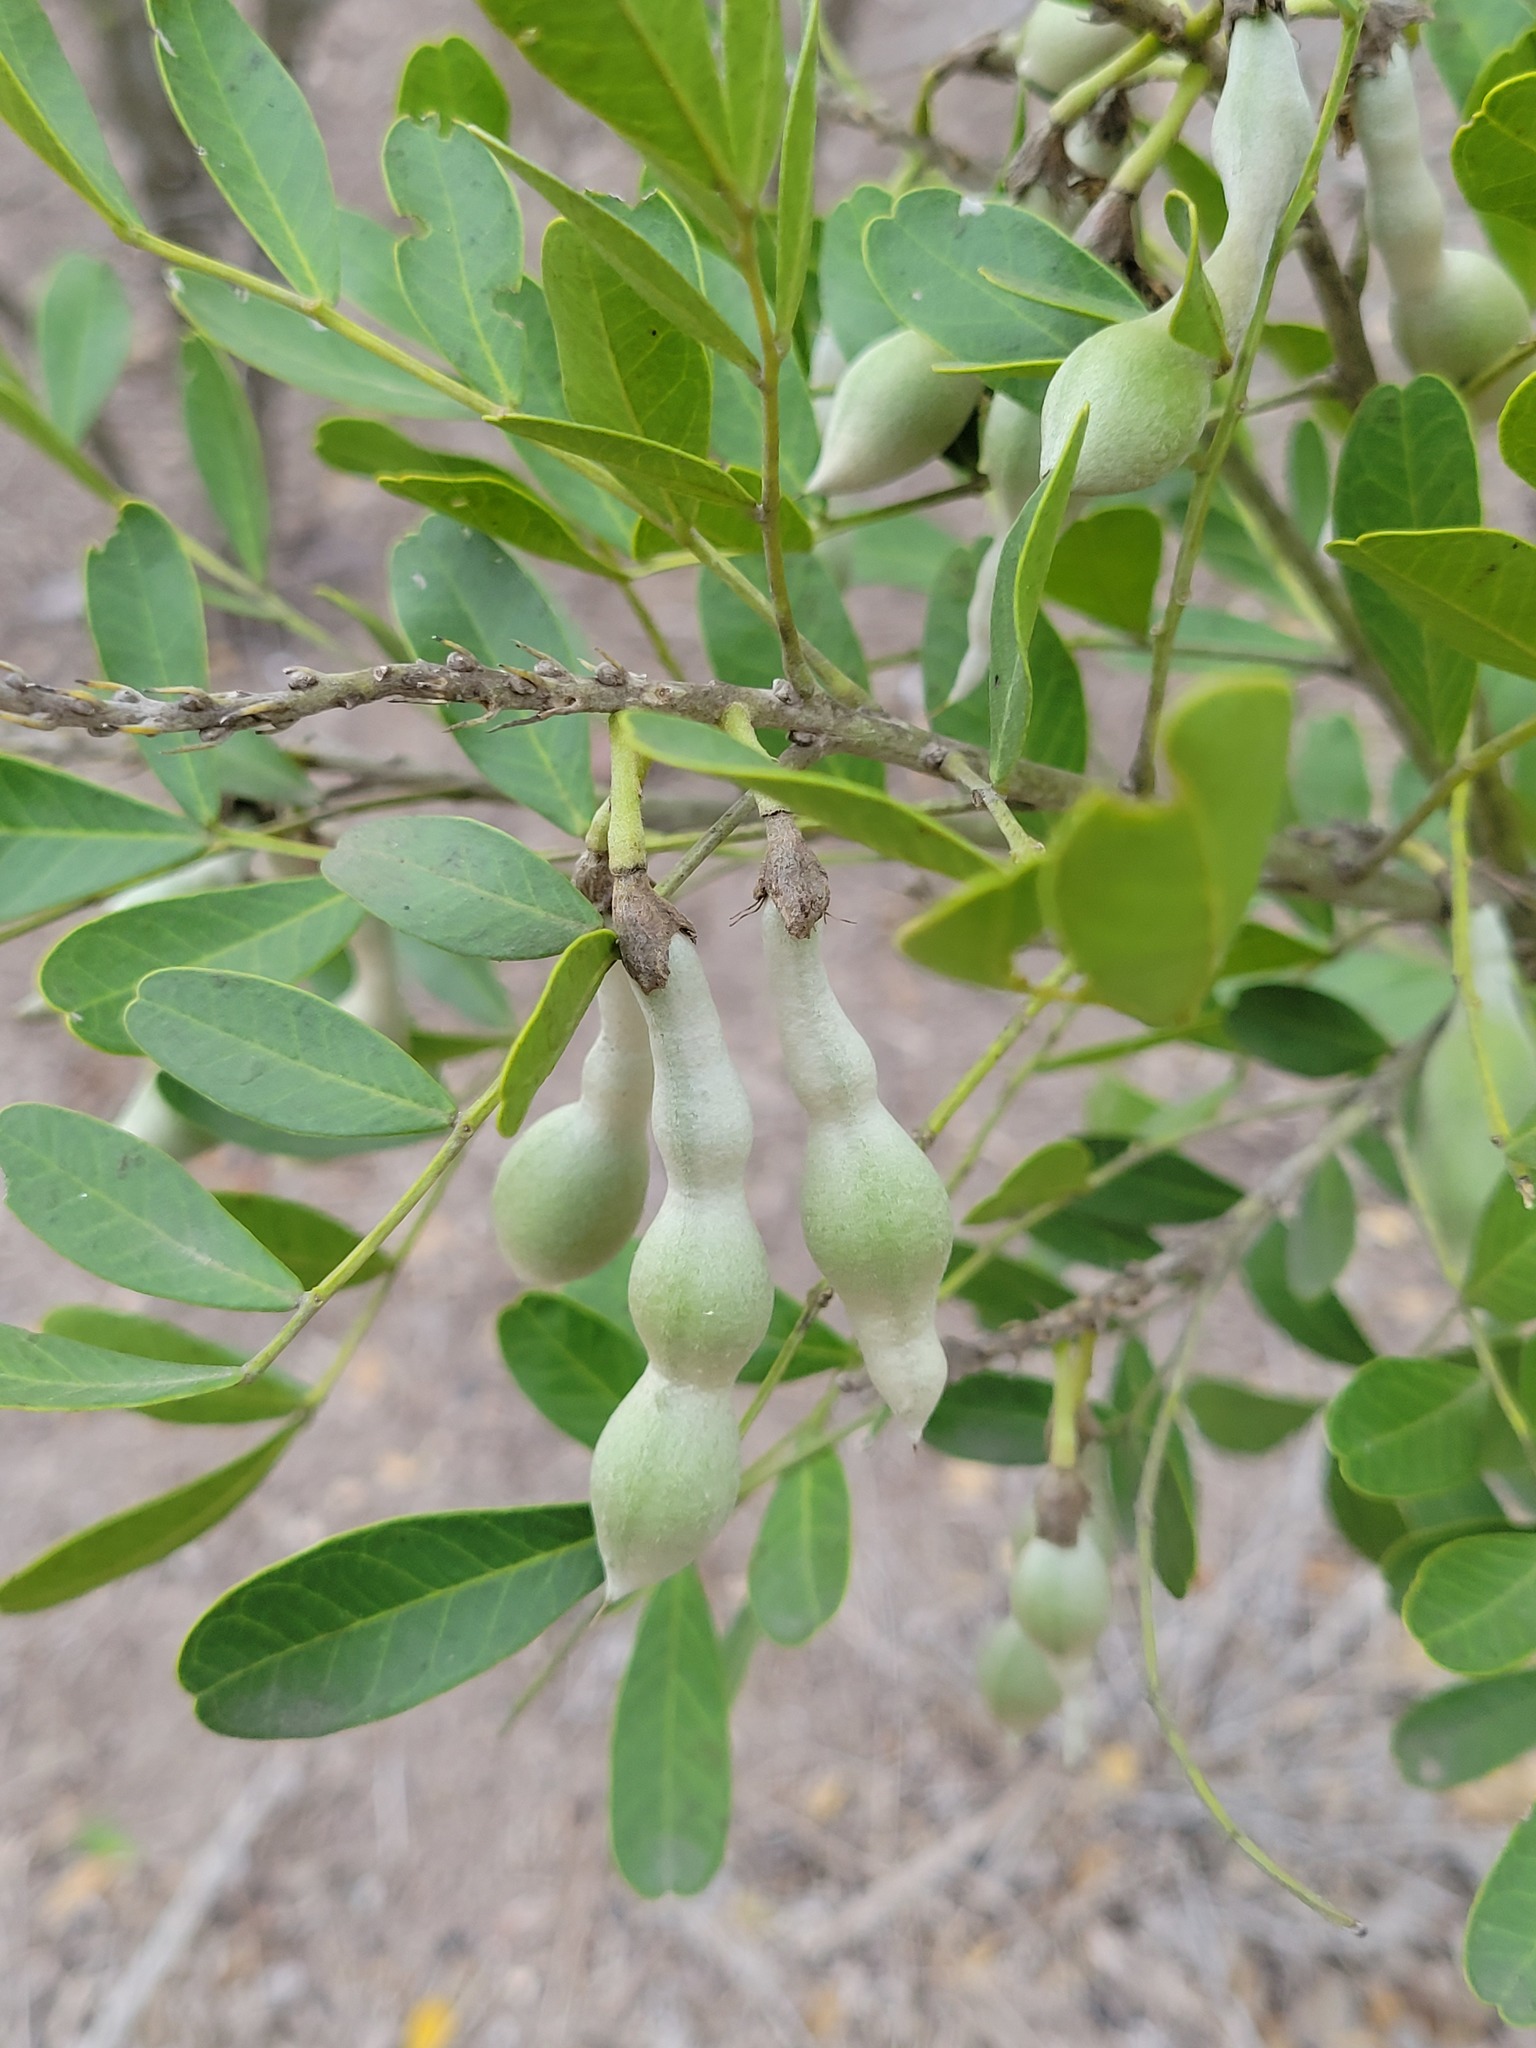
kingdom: Plantae
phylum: Tracheophyta
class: Magnoliopsida
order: Fabales
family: Fabaceae
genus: Dermatophyllum
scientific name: Dermatophyllum secundiflorum
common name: Texas-mountain-laurel
